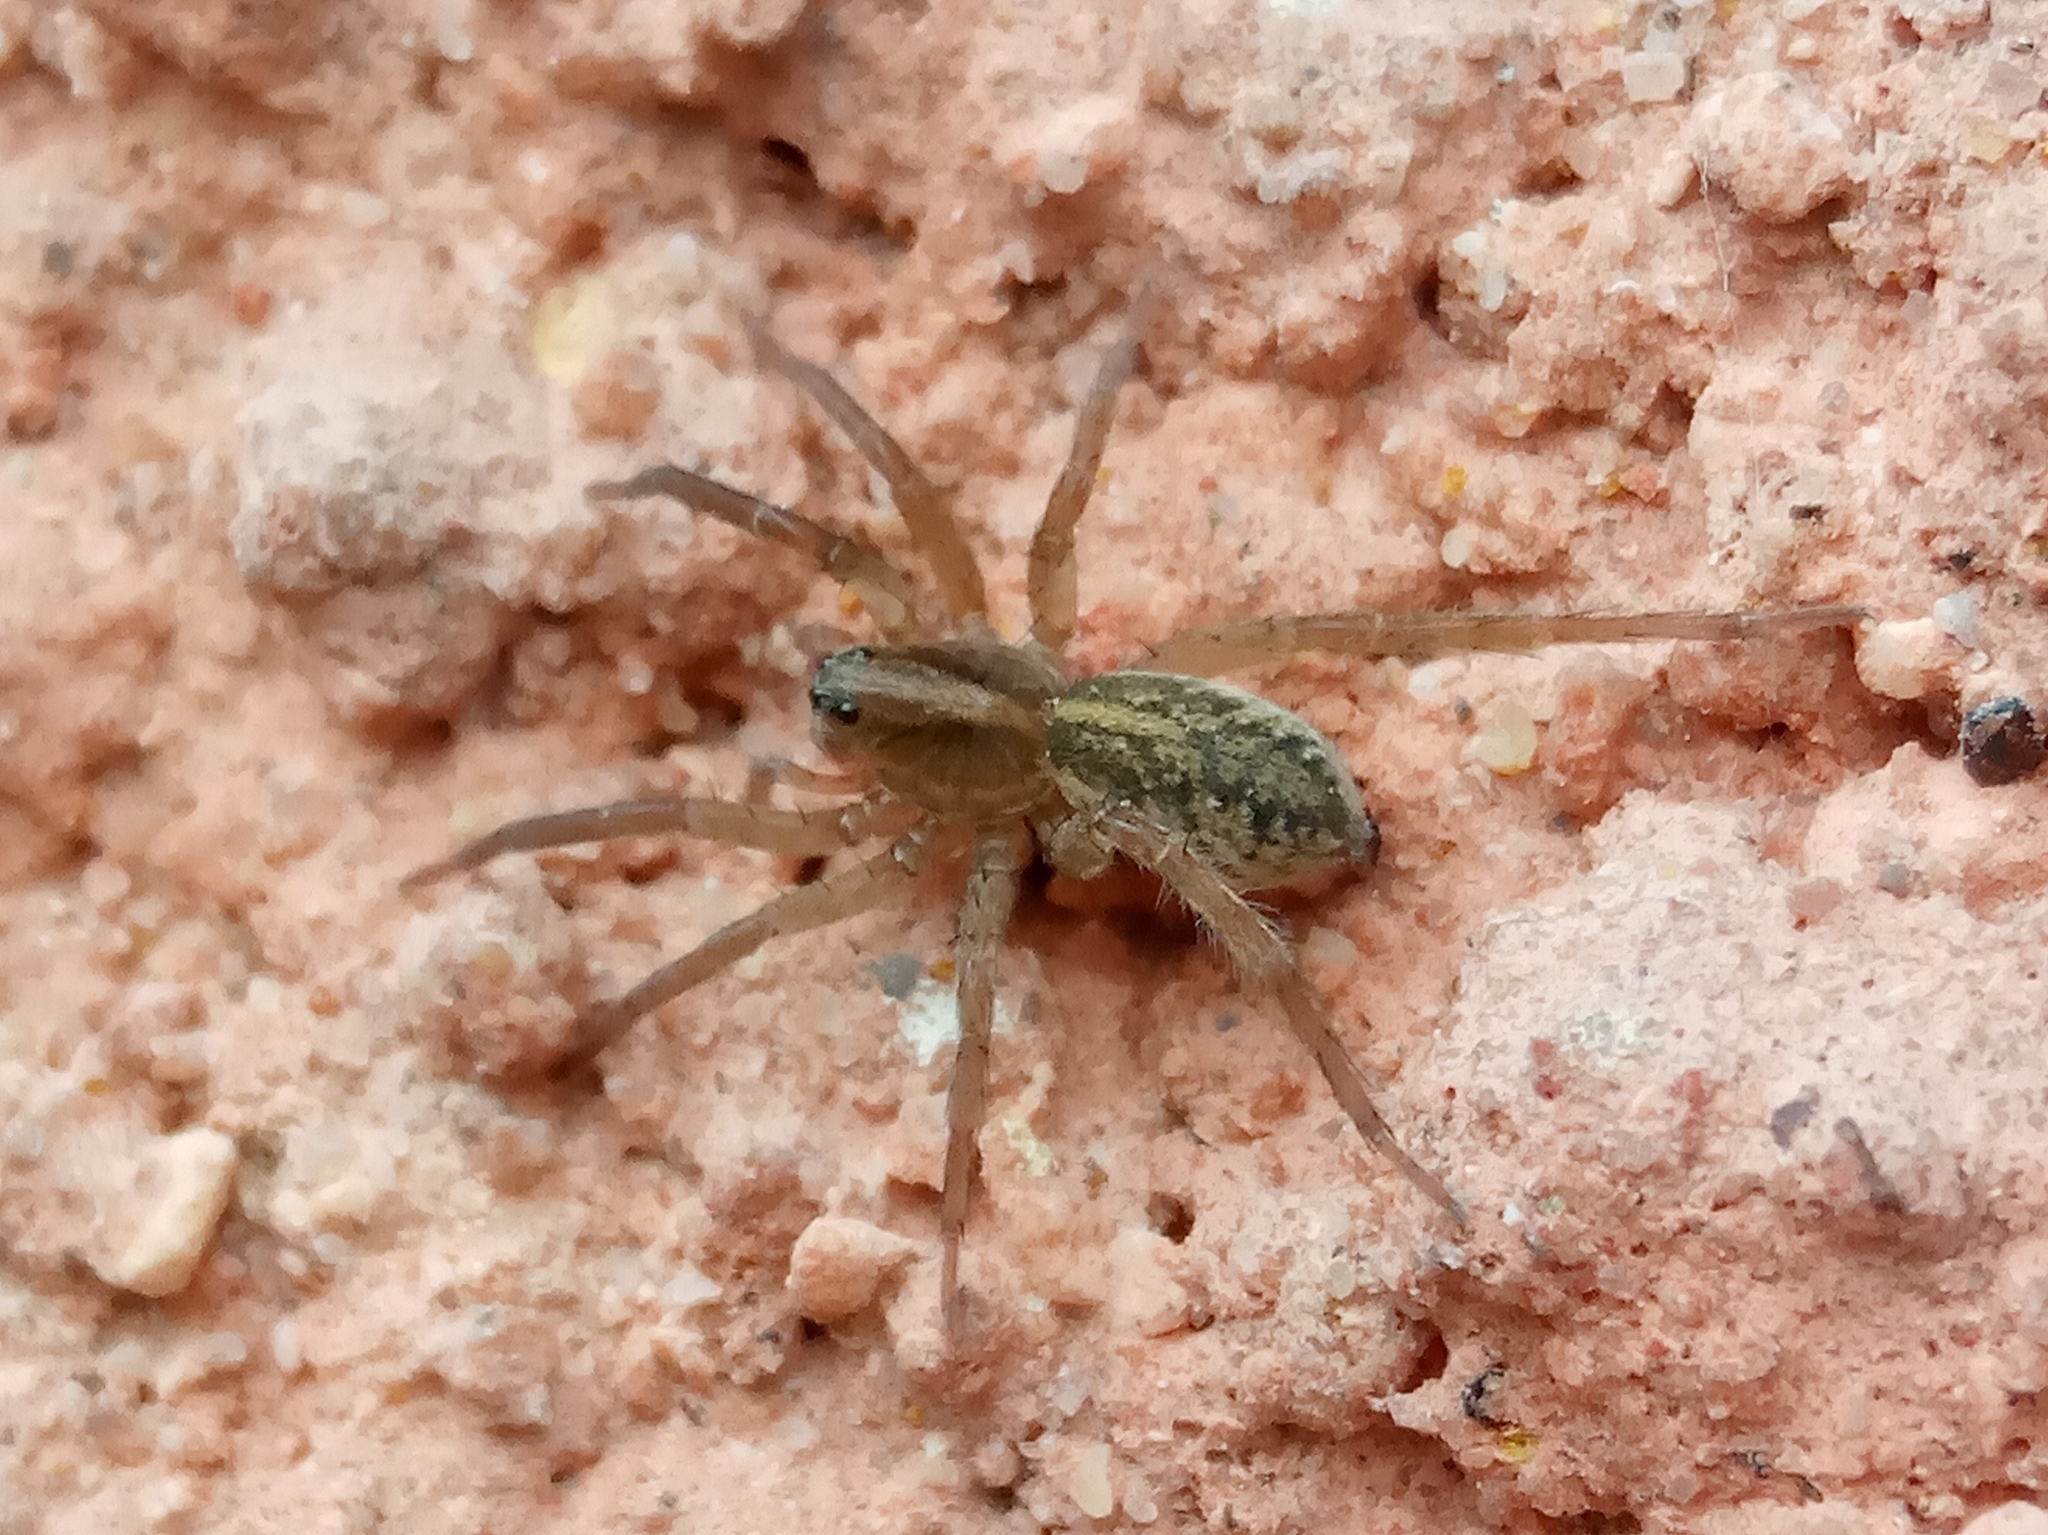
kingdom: Animalia
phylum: Arthropoda
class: Arachnida
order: Araneae
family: Lycosidae
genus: Trochosa
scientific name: Trochosa
